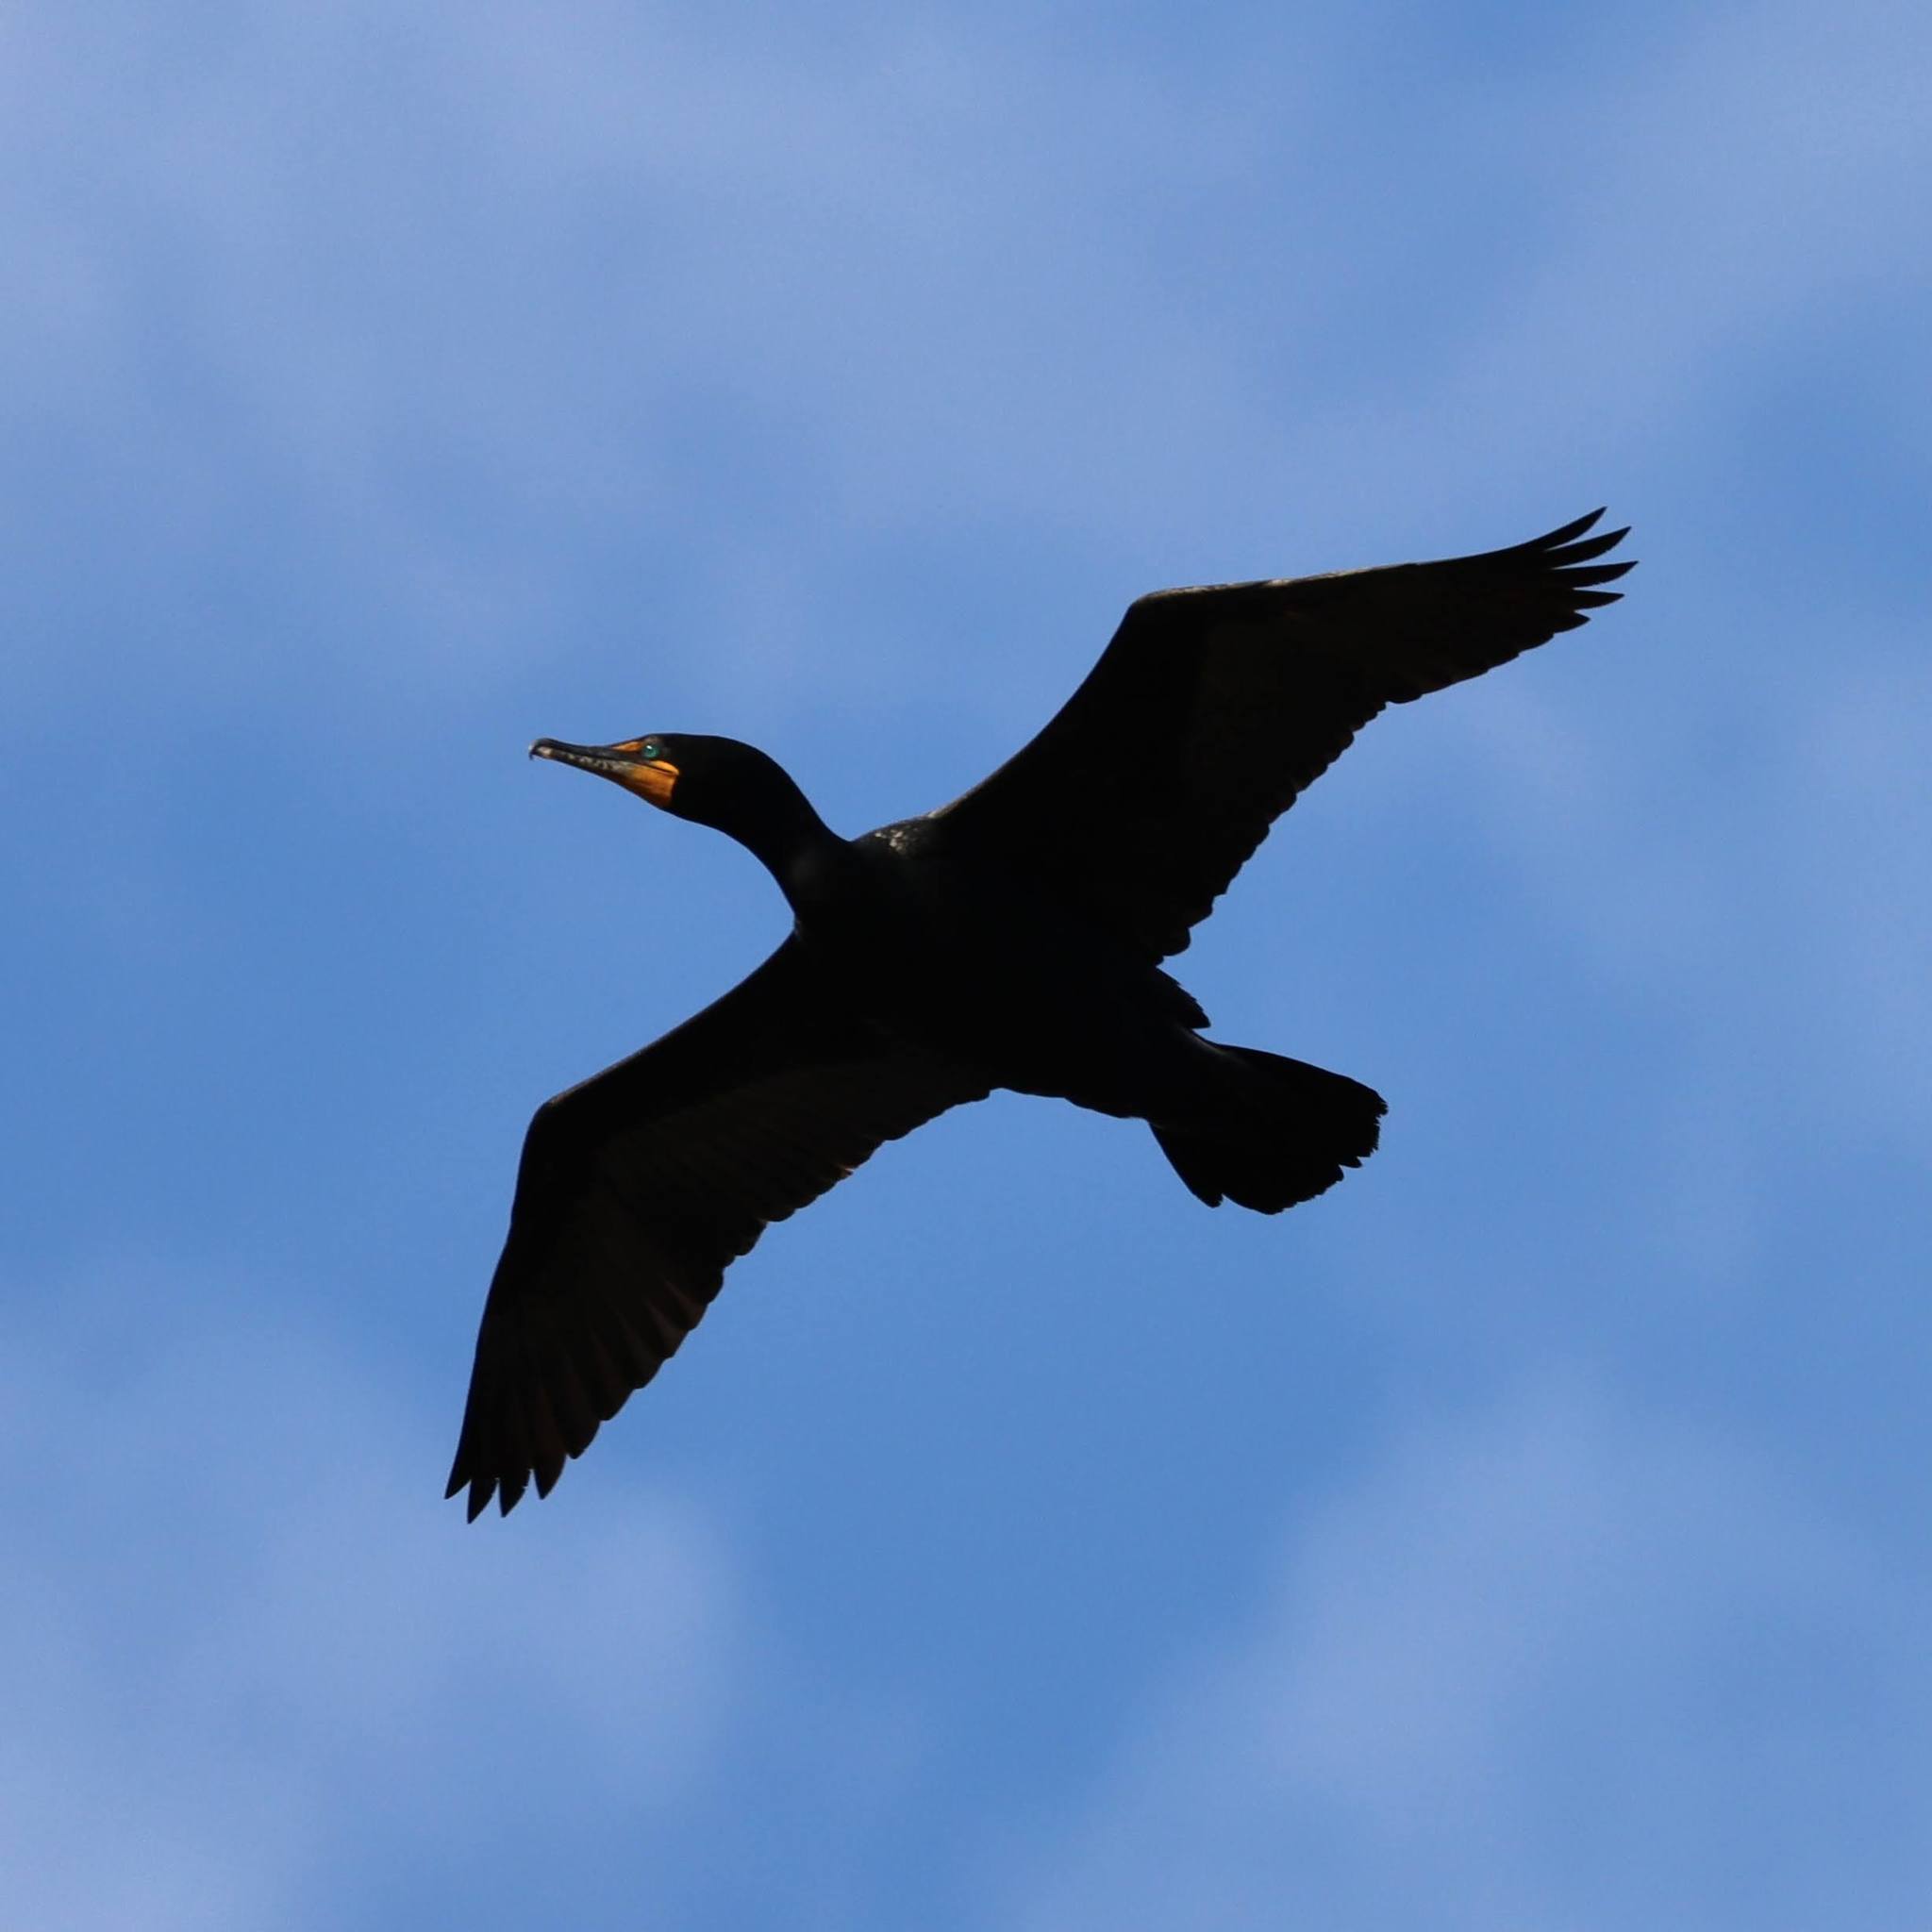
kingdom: Animalia
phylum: Chordata
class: Aves
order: Suliformes
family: Phalacrocoracidae
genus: Phalacrocorax
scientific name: Phalacrocorax auritus
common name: Double-crested cormorant
